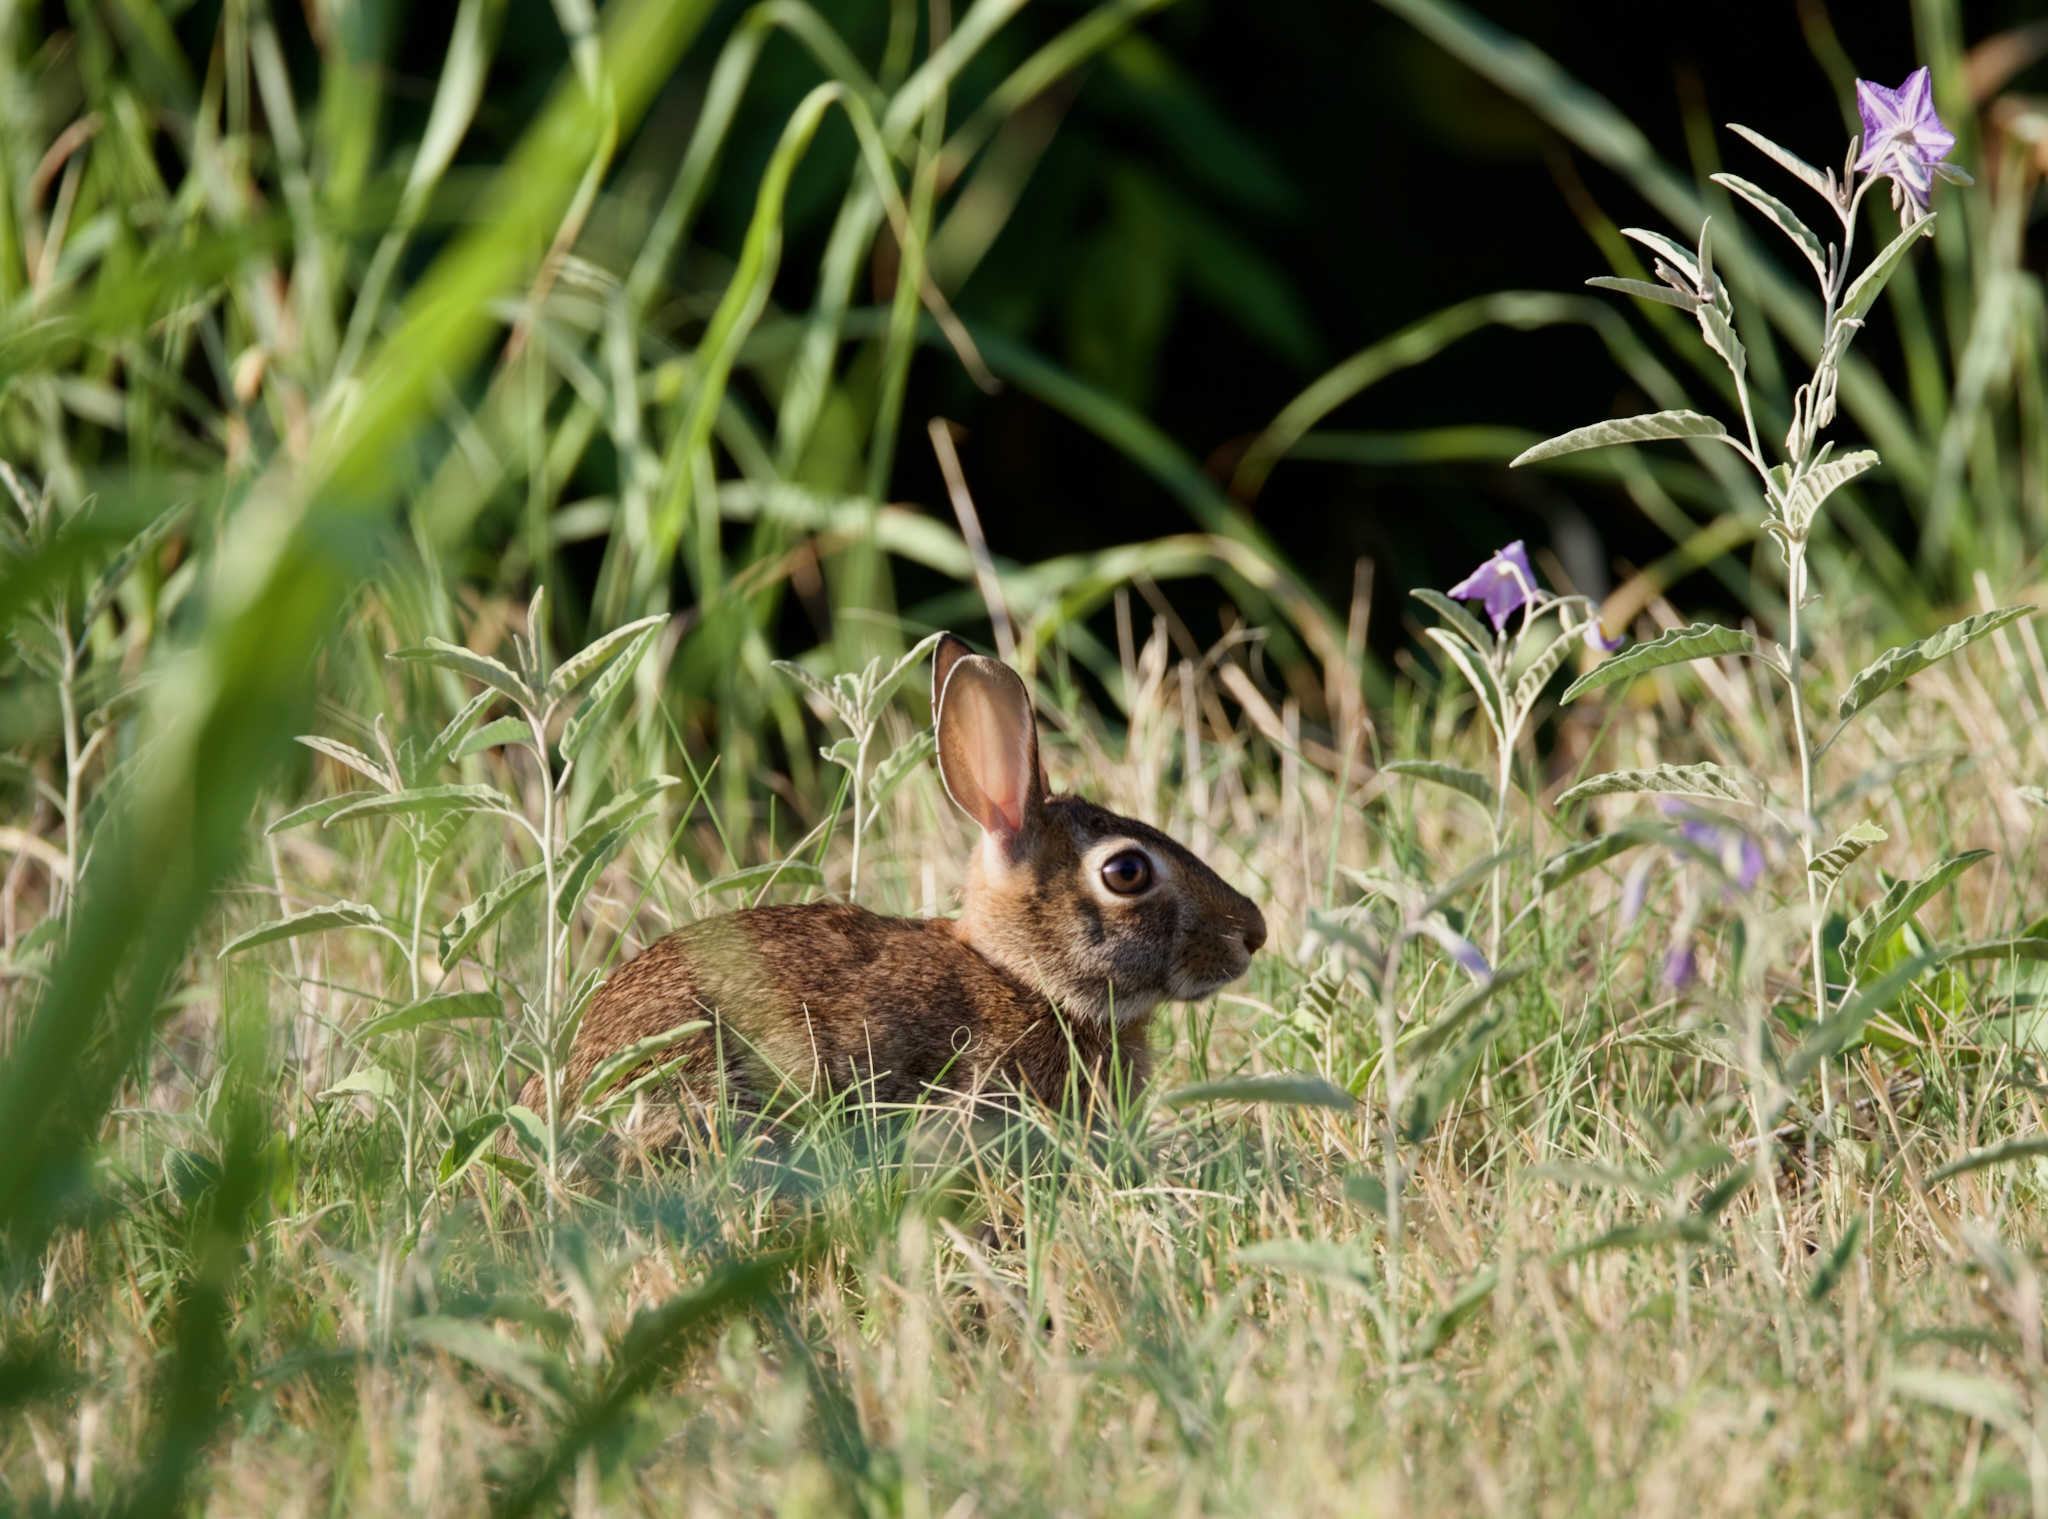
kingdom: Animalia
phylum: Chordata
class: Mammalia
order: Lagomorpha
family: Leporidae
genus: Sylvilagus
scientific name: Sylvilagus floridanus
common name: Eastern cottontail
